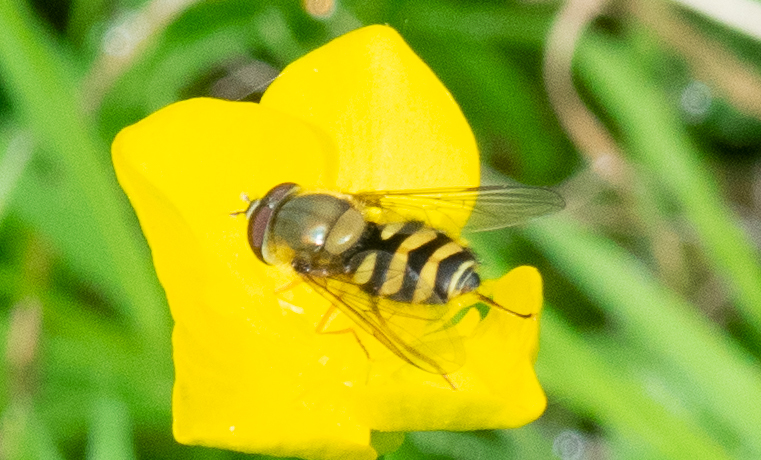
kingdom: Animalia
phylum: Arthropoda
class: Insecta
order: Diptera
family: Syrphidae
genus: Syrphus
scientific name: Syrphus
